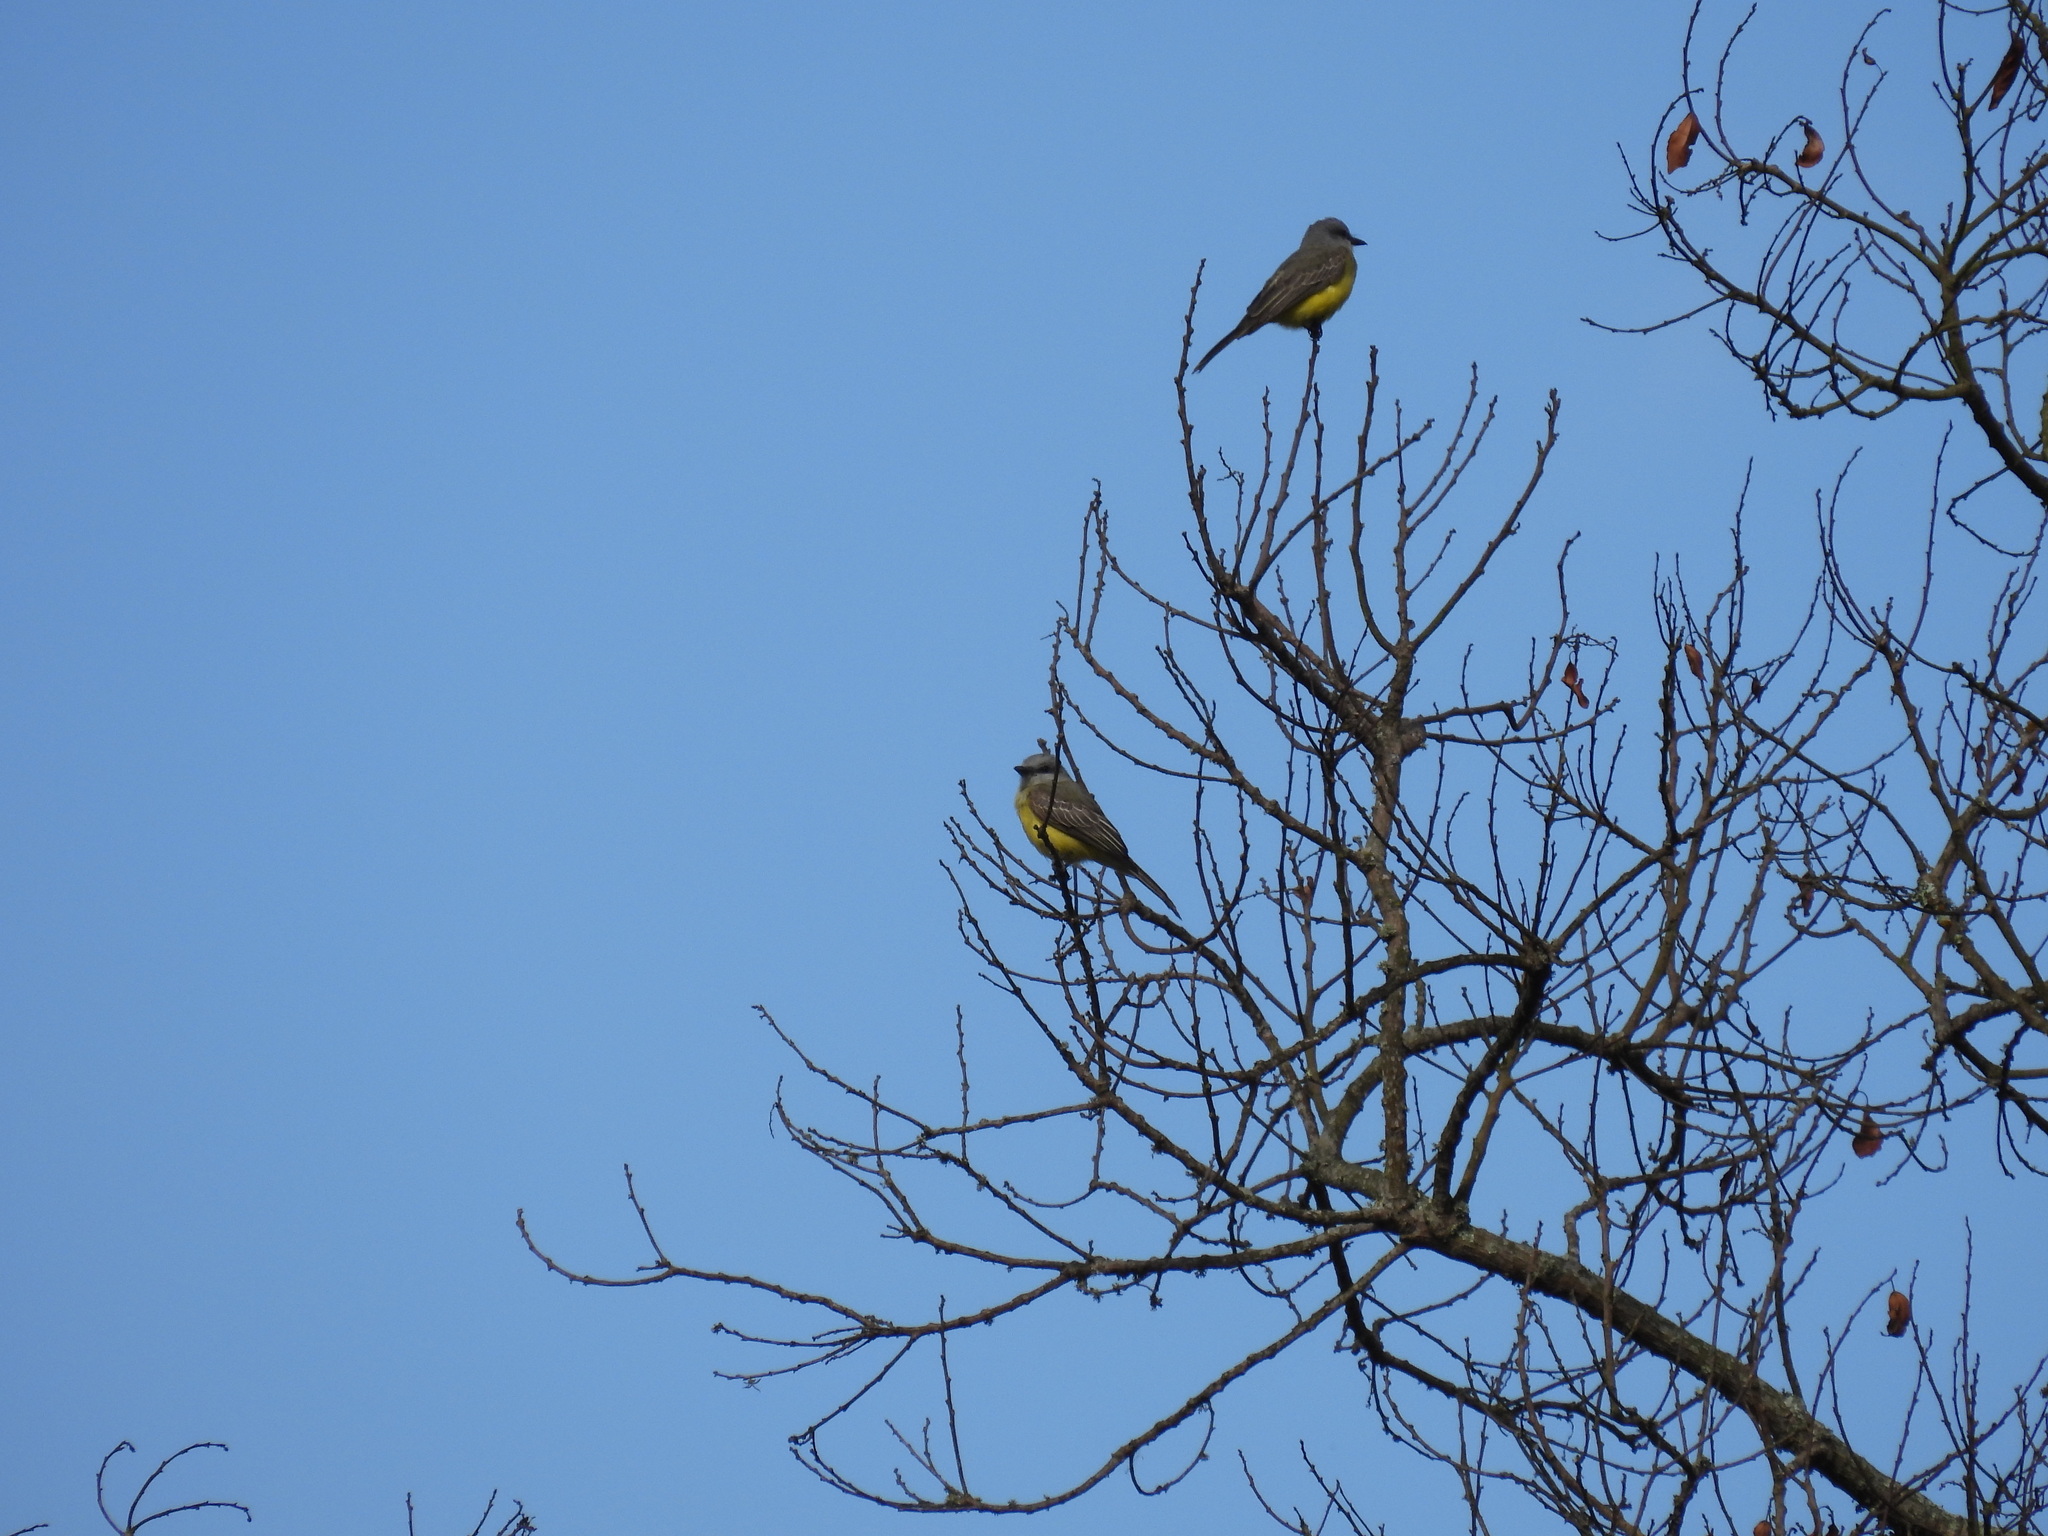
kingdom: Animalia
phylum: Chordata
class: Aves
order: Passeriformes
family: Tyrannidae
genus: Tyrannus
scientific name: Tyrannus melancholicus
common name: Tropical kingbird
